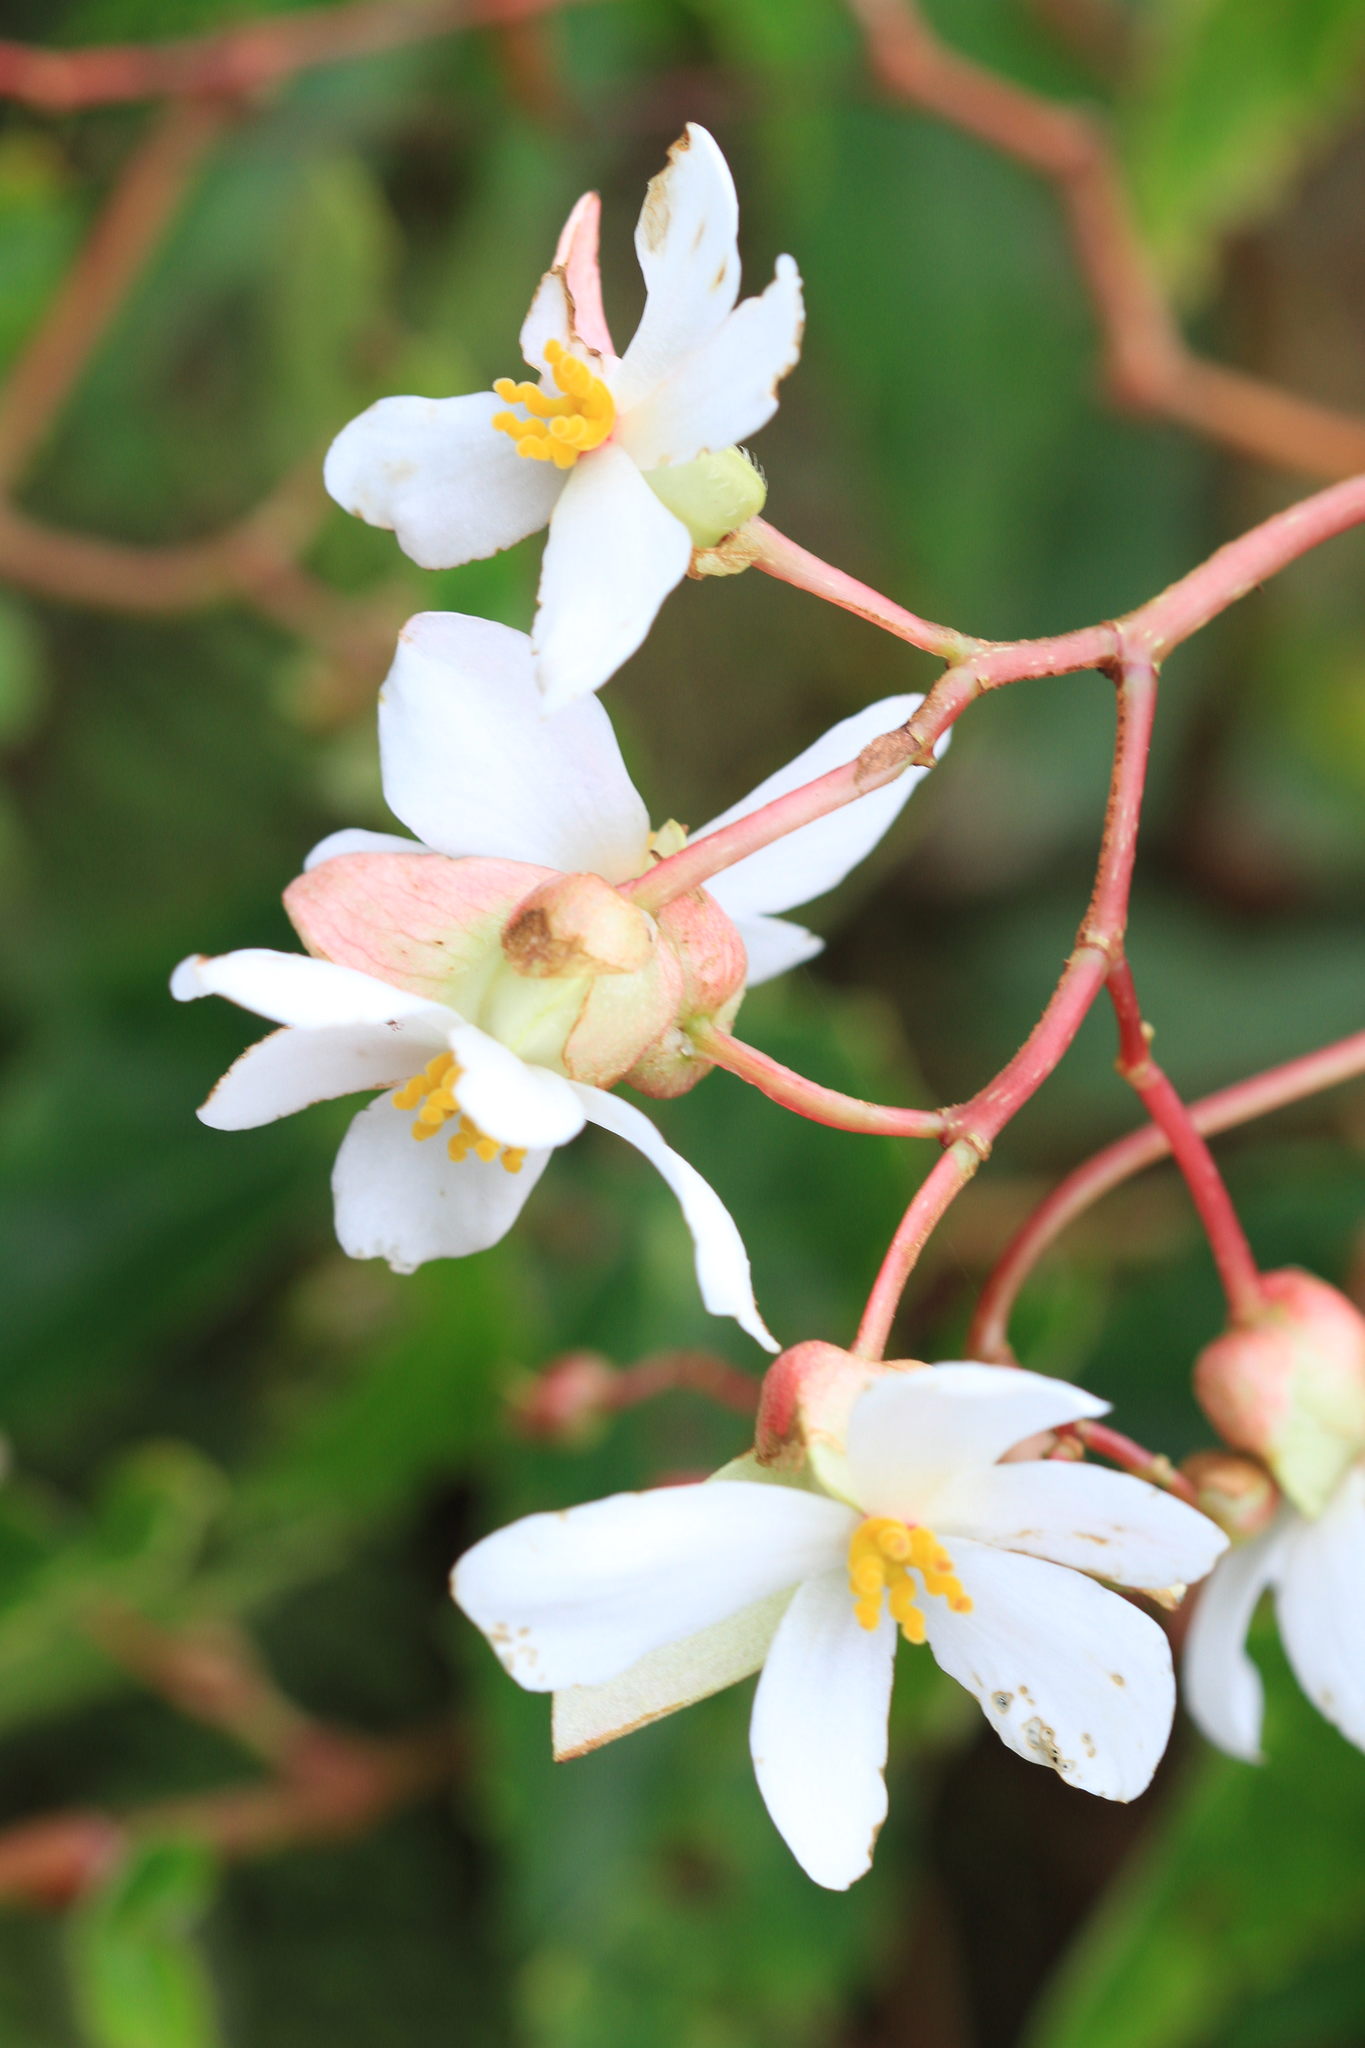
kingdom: Plantae
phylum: Tracheophyta
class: Magnoliopsida
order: Cucurbitales
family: Begoniaceae
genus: Begonia
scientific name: Begonia plumieri
